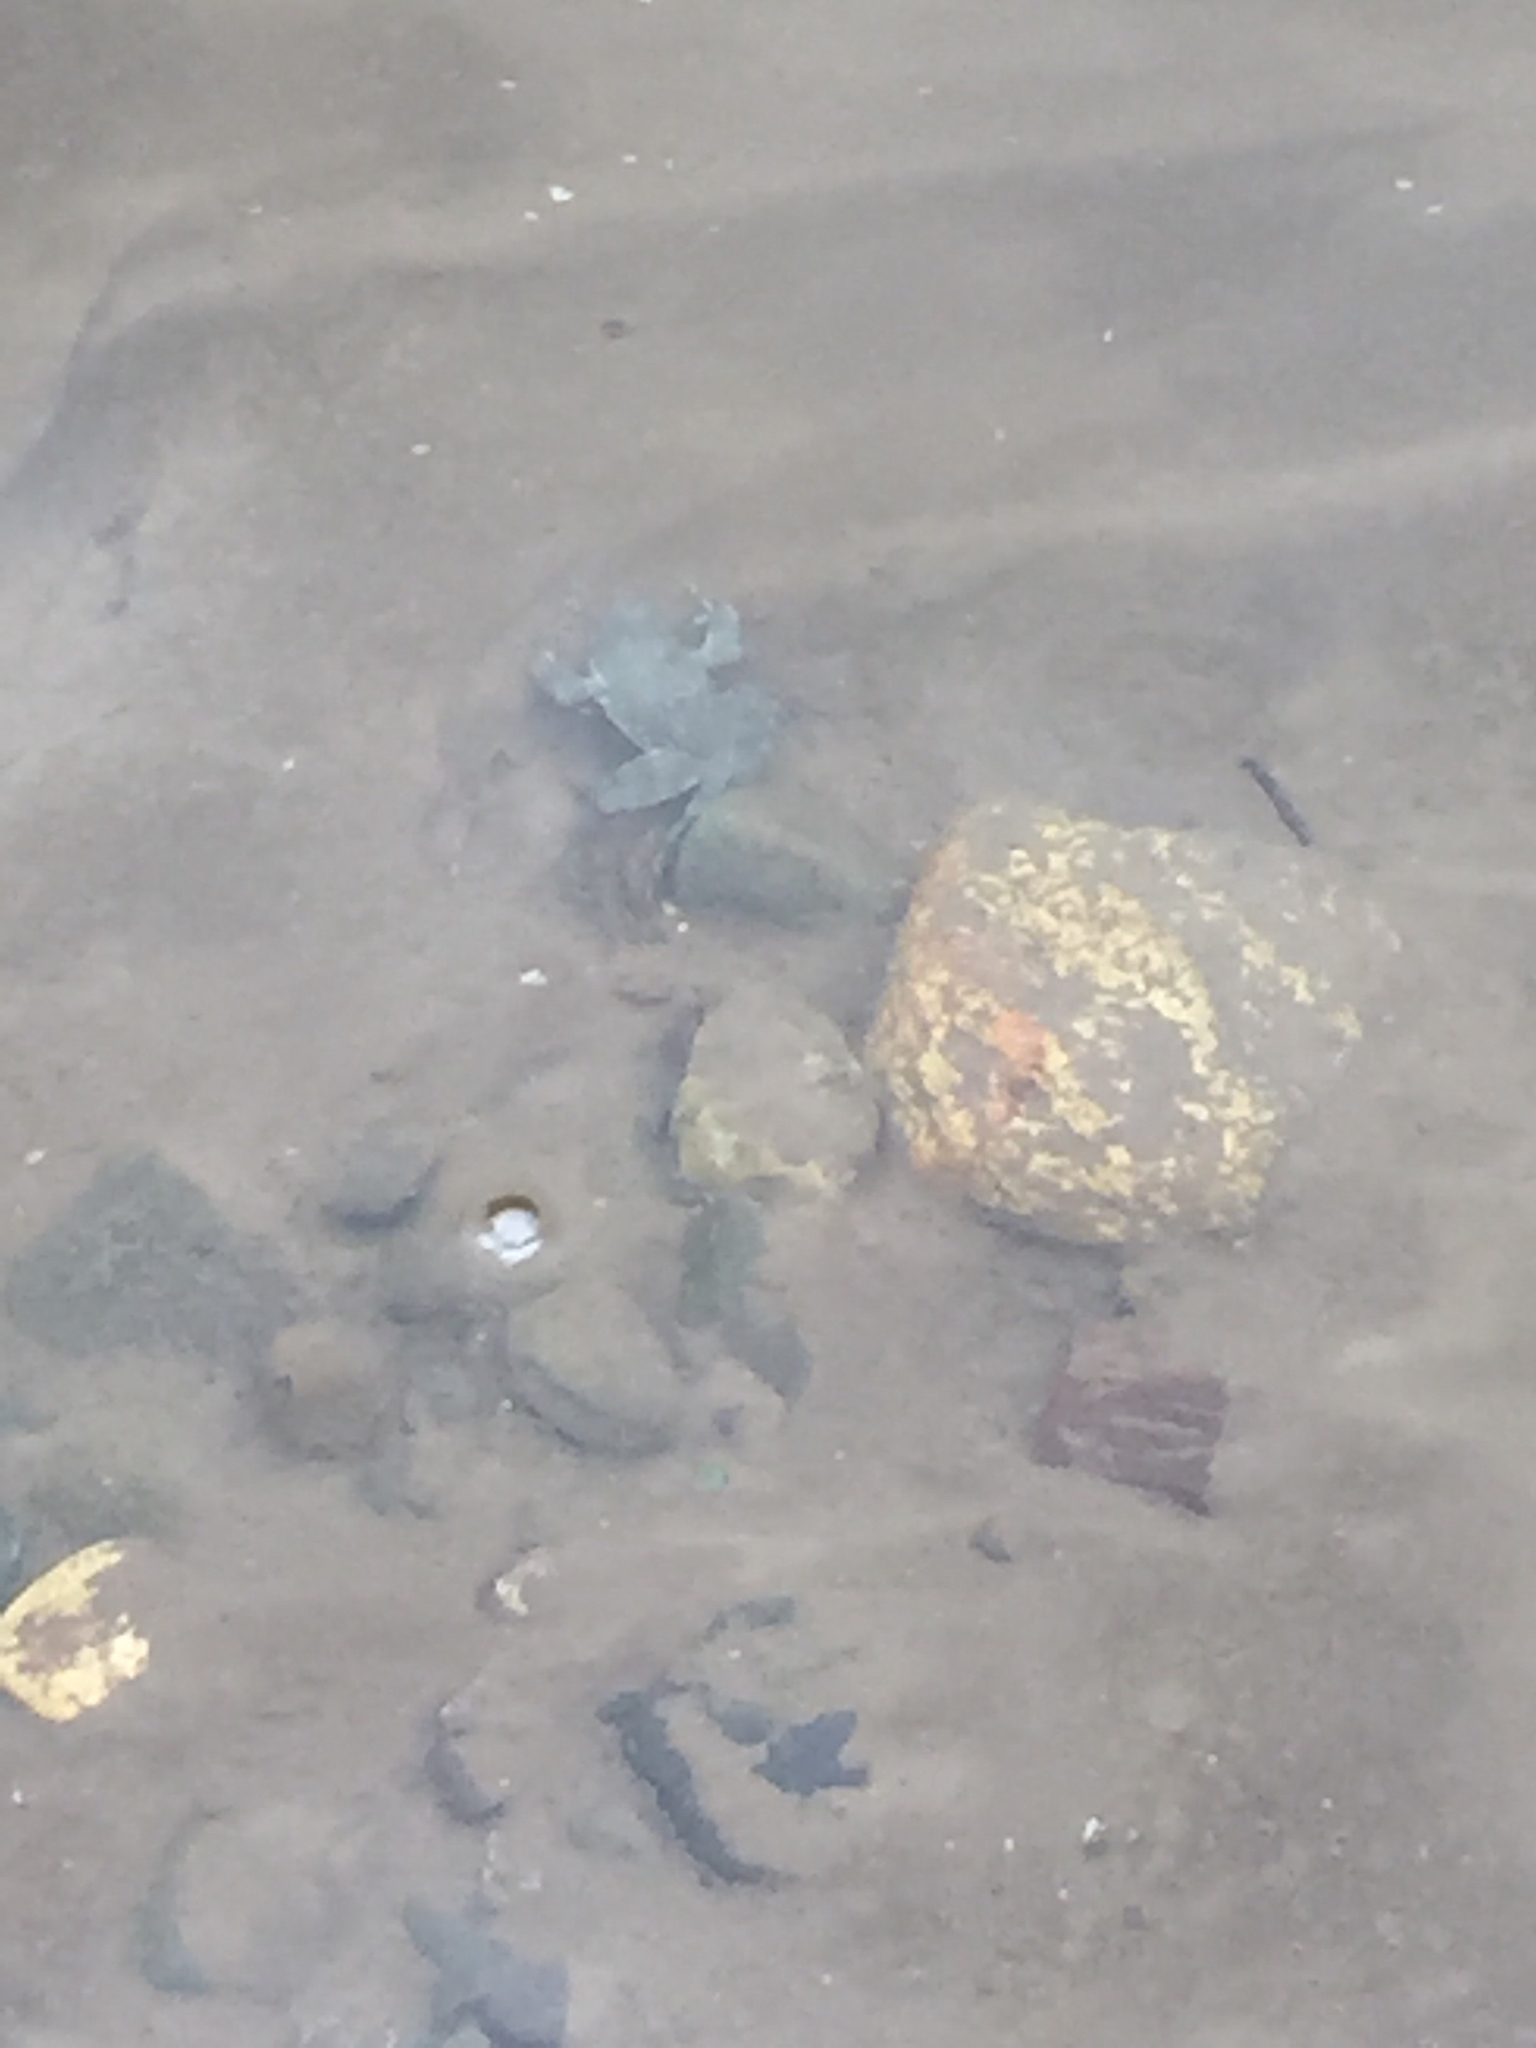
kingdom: Animalia
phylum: Chordata
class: Amphibia
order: Anura
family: Ranidae
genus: Rana
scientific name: Rana boylii
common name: Foothill yellow-legged frog
